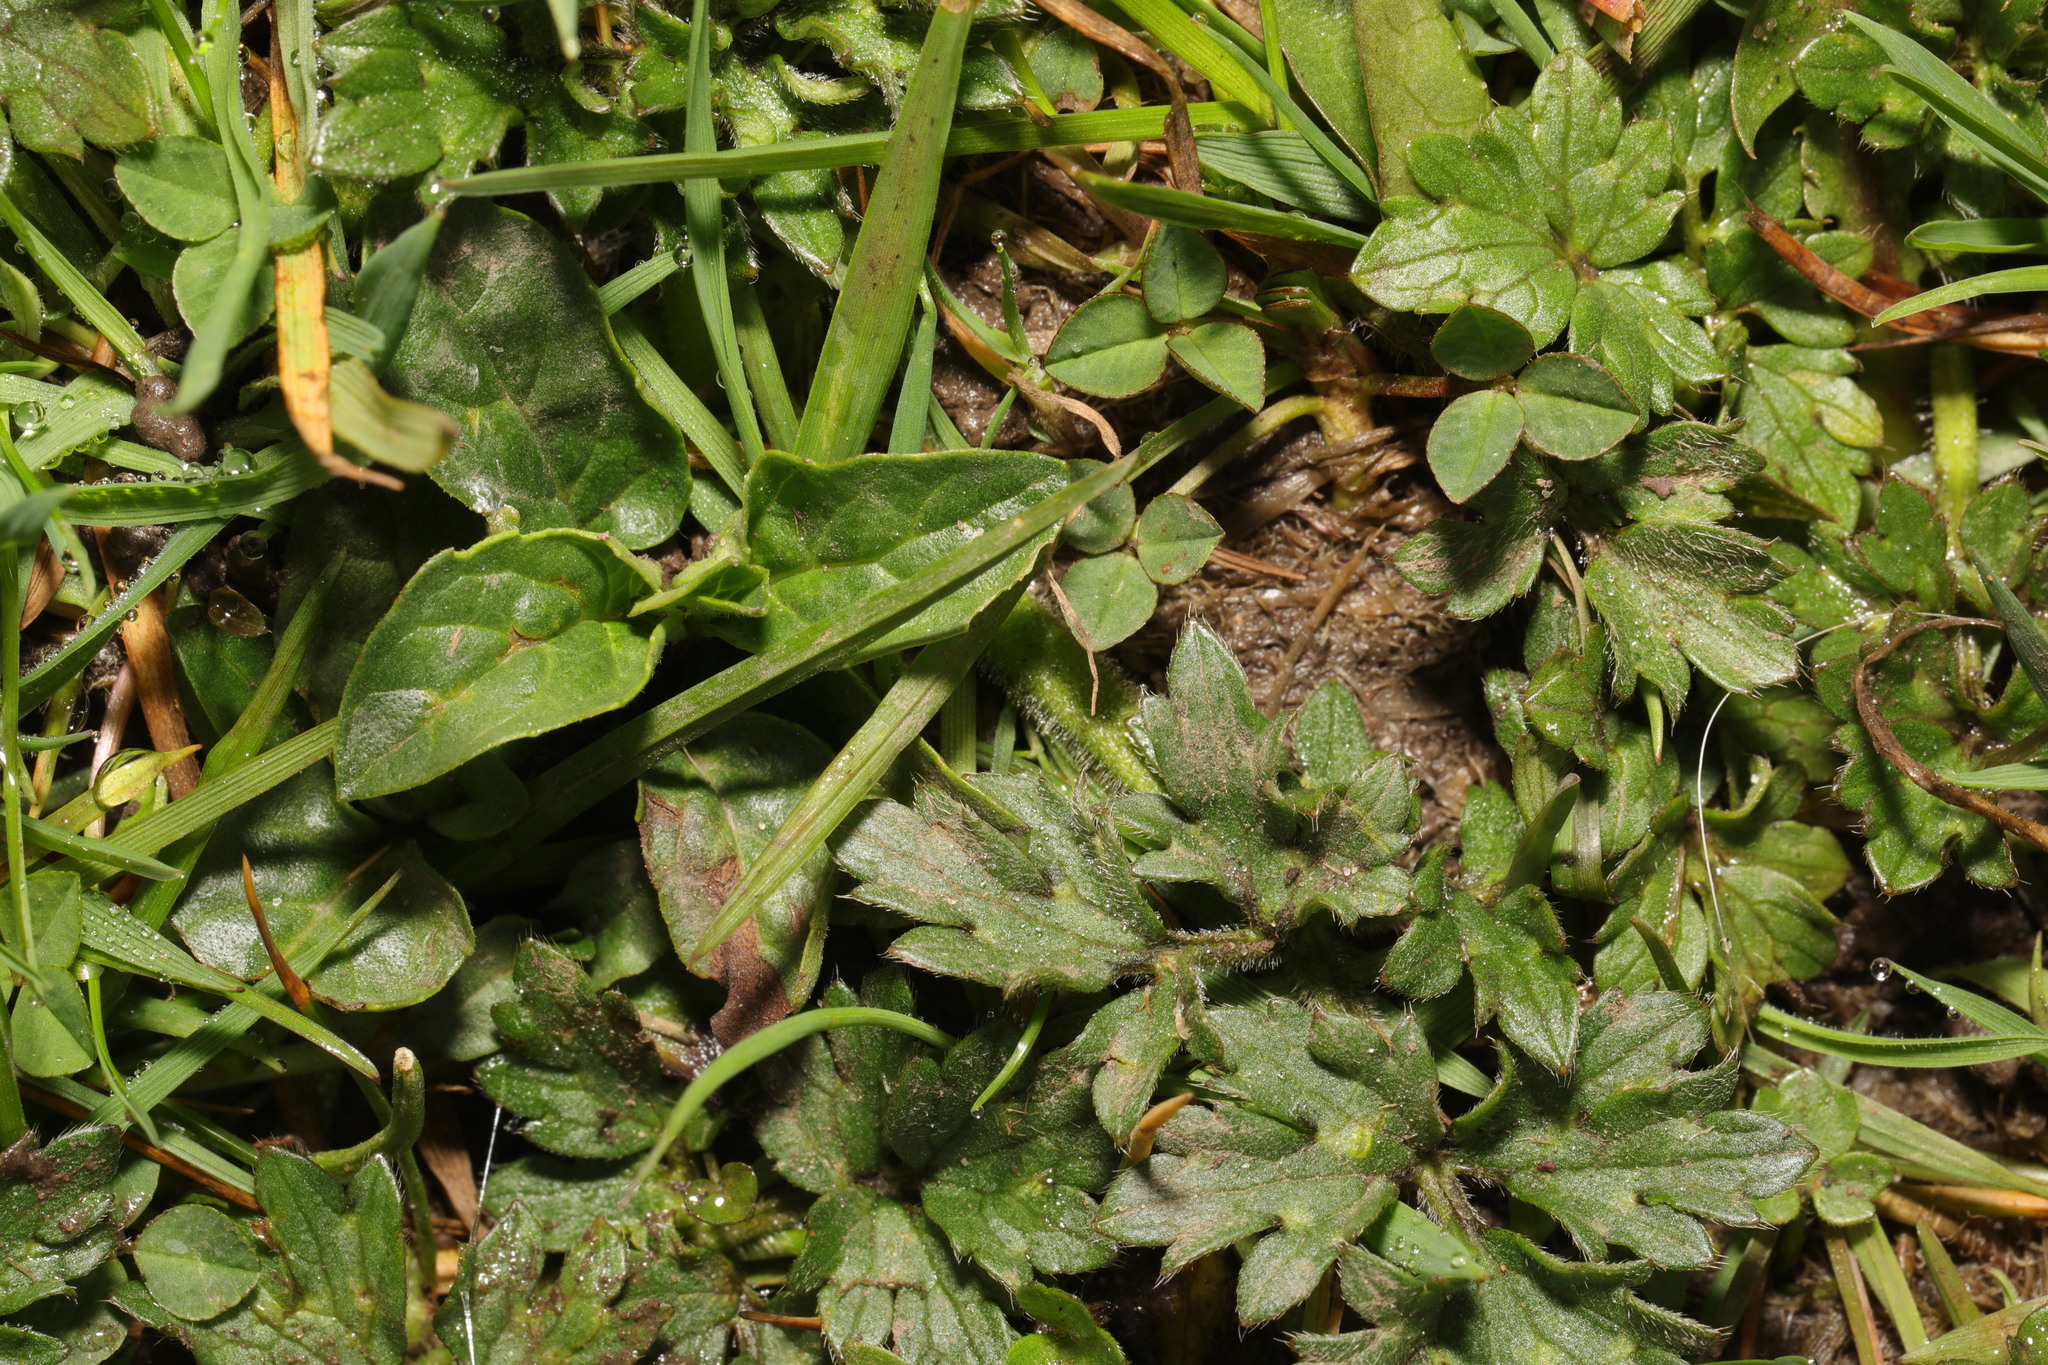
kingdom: Plantae
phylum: Tracheophyta
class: Magnoliopsida
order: Ranunculales
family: Ranunculaceae
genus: Ranunculus
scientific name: Ranunculus repens
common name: Creeping buttercup
